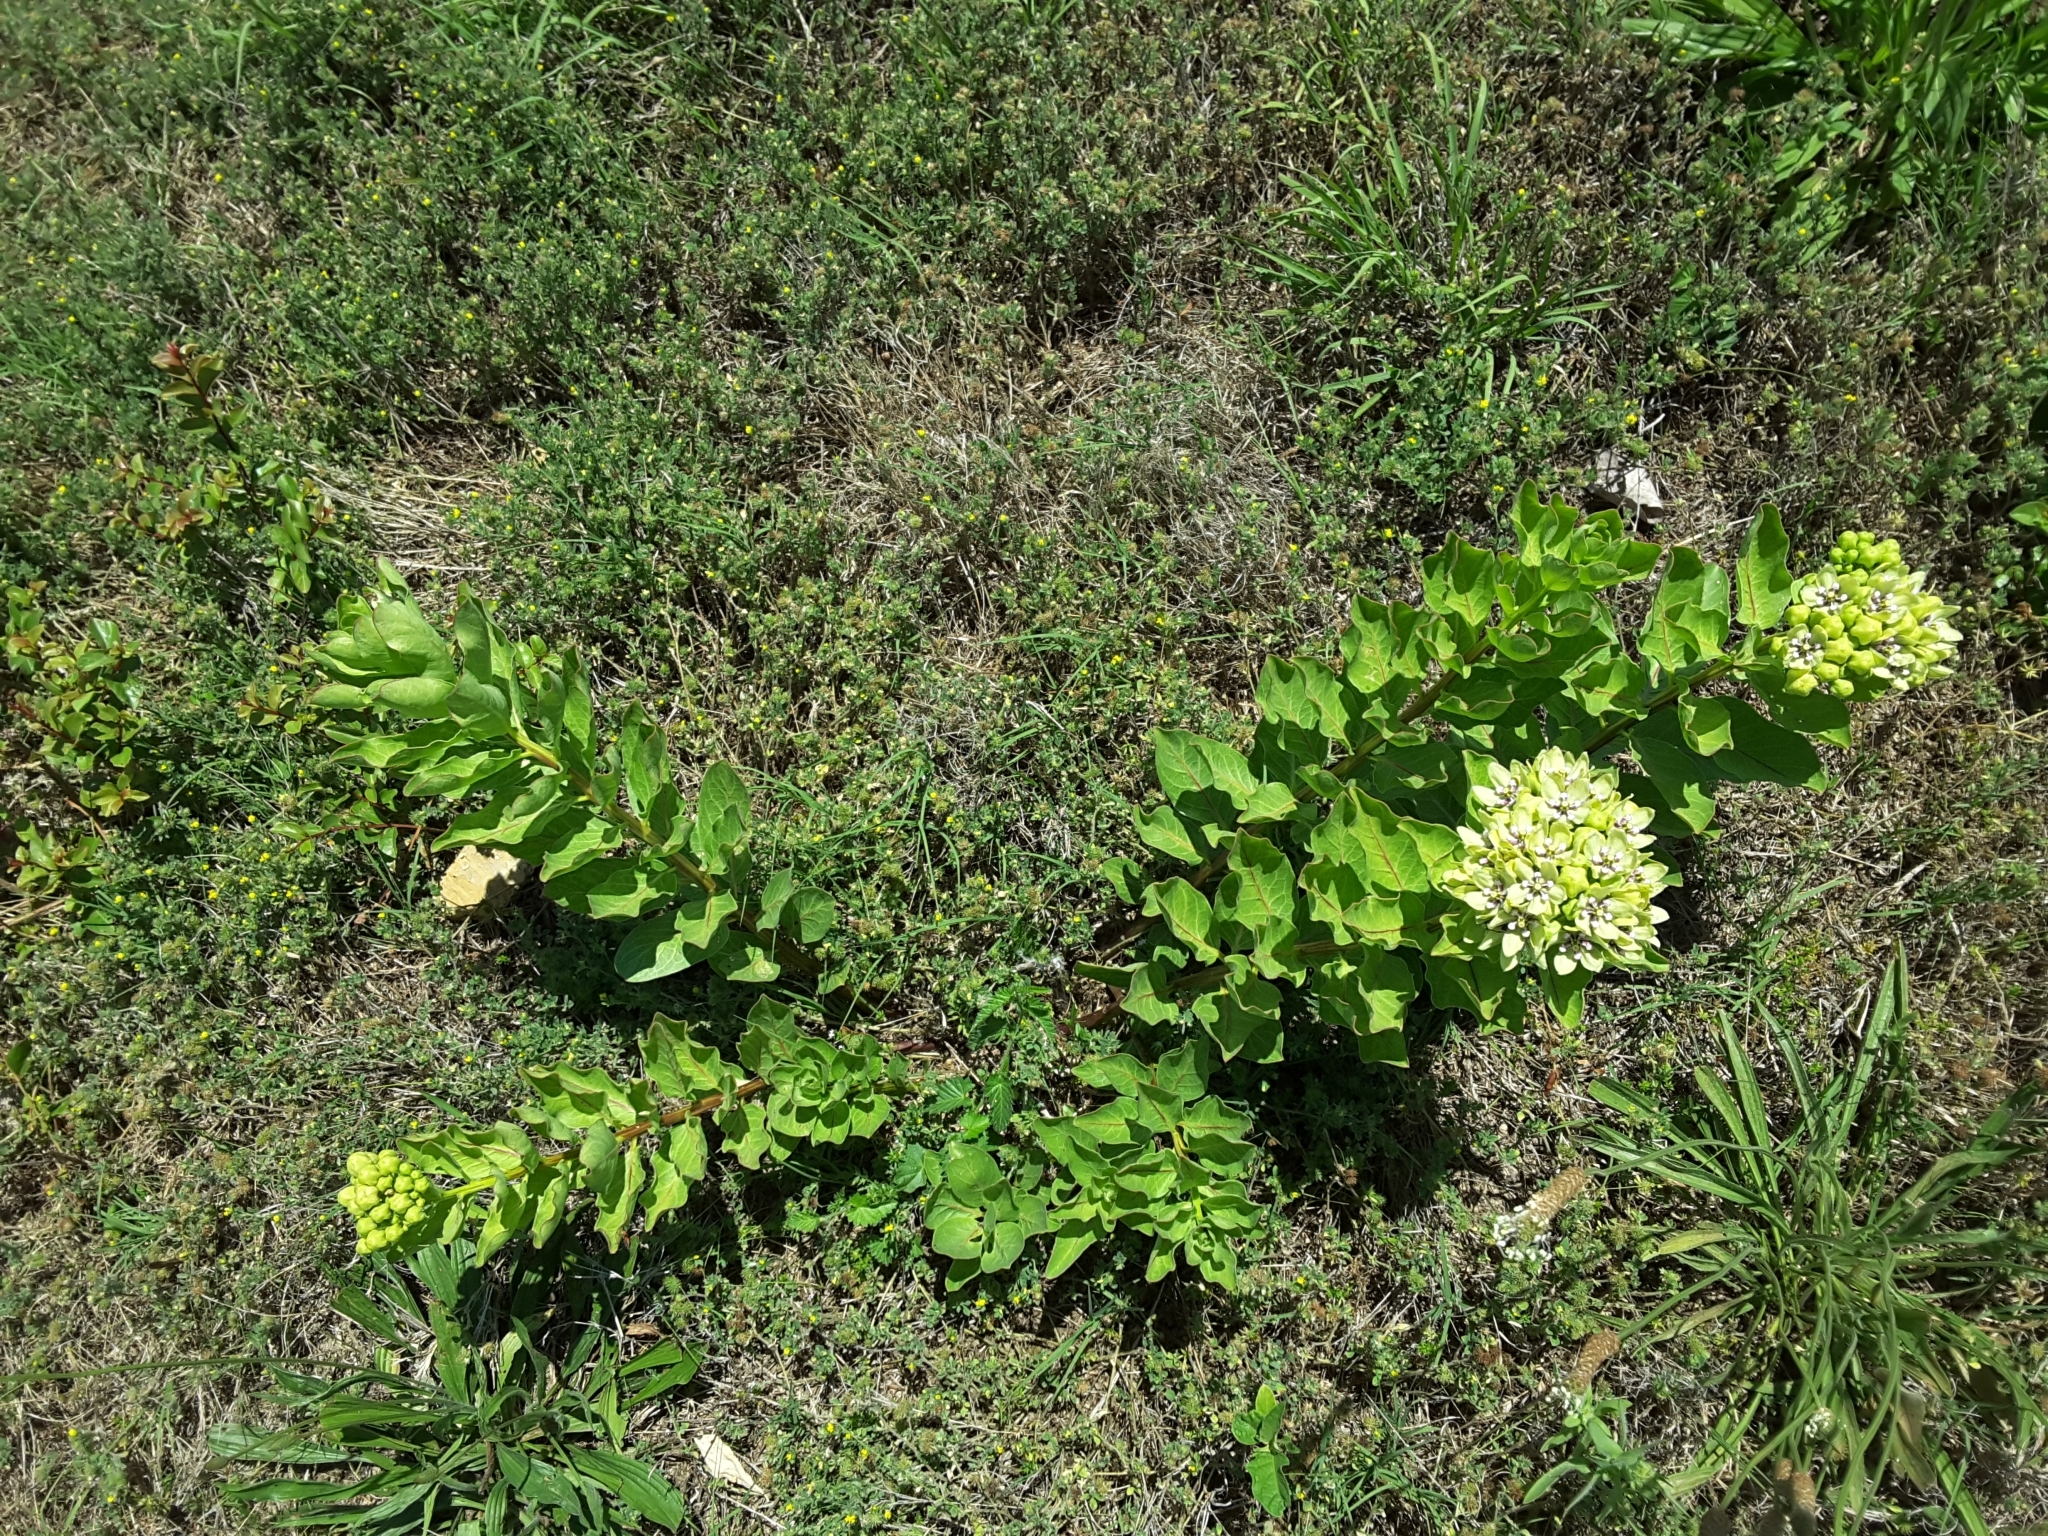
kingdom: Plantae
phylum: Tracheophyta
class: Magnoliopsida
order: Gentianales
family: Apocynaceae
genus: Asclepias
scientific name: Asclepias viridis
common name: Antelope-horns
